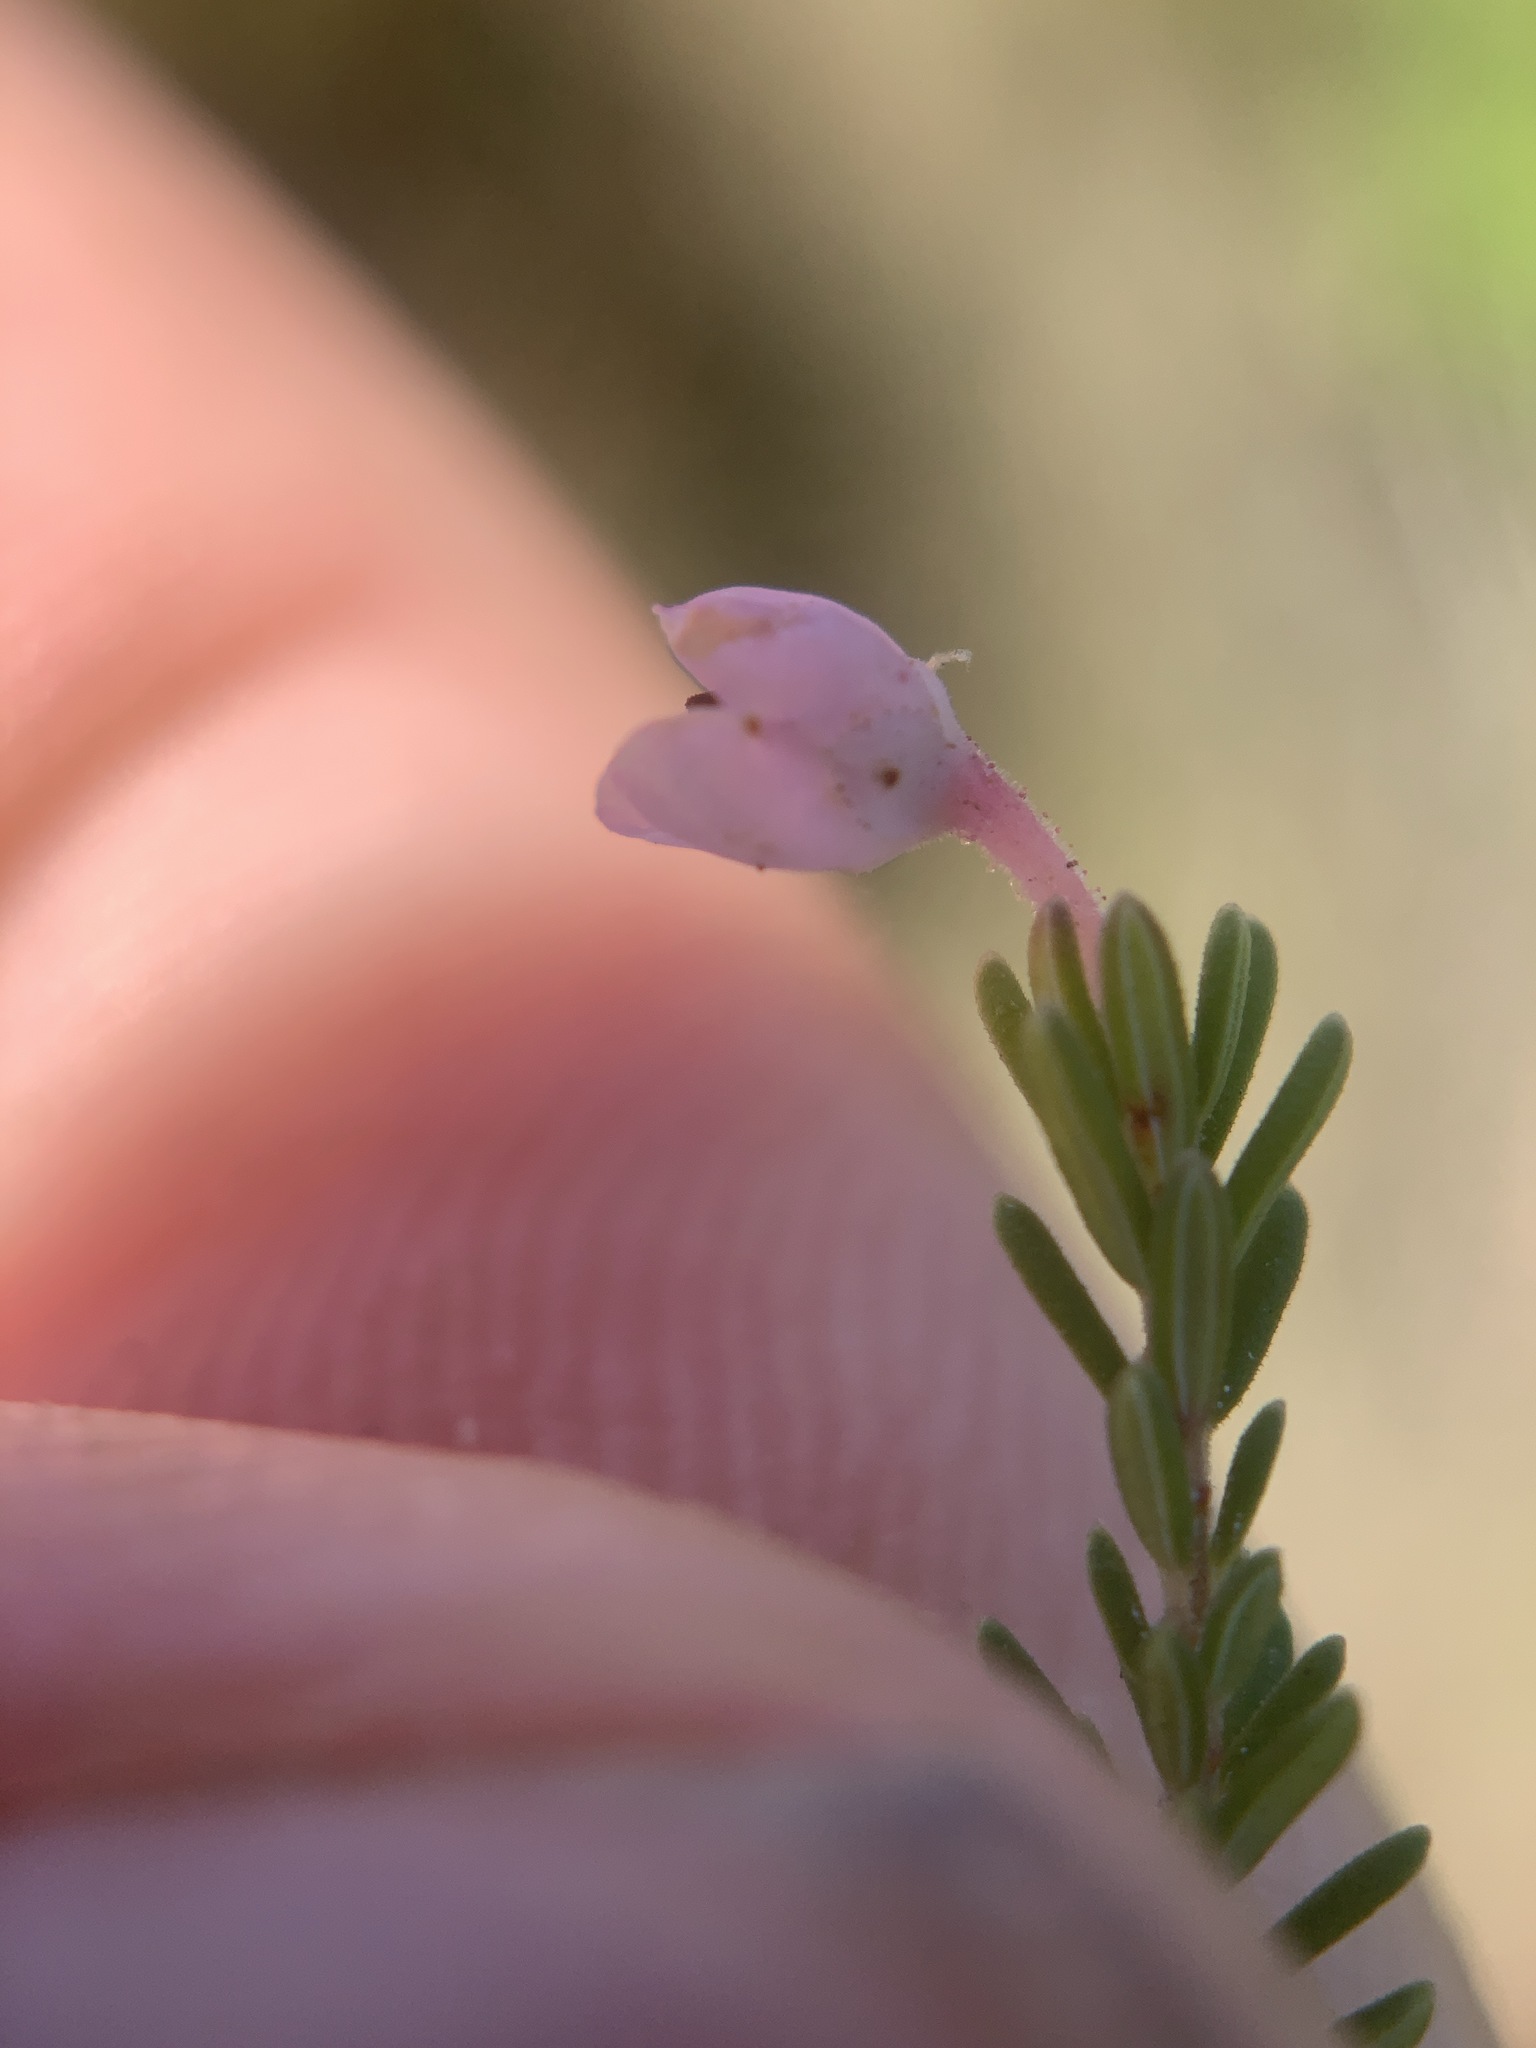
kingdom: Plantae
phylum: Tracheophyta
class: Magnoliopsida
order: Ericales
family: Ericaceae
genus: Erica
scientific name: Erica inconstans
